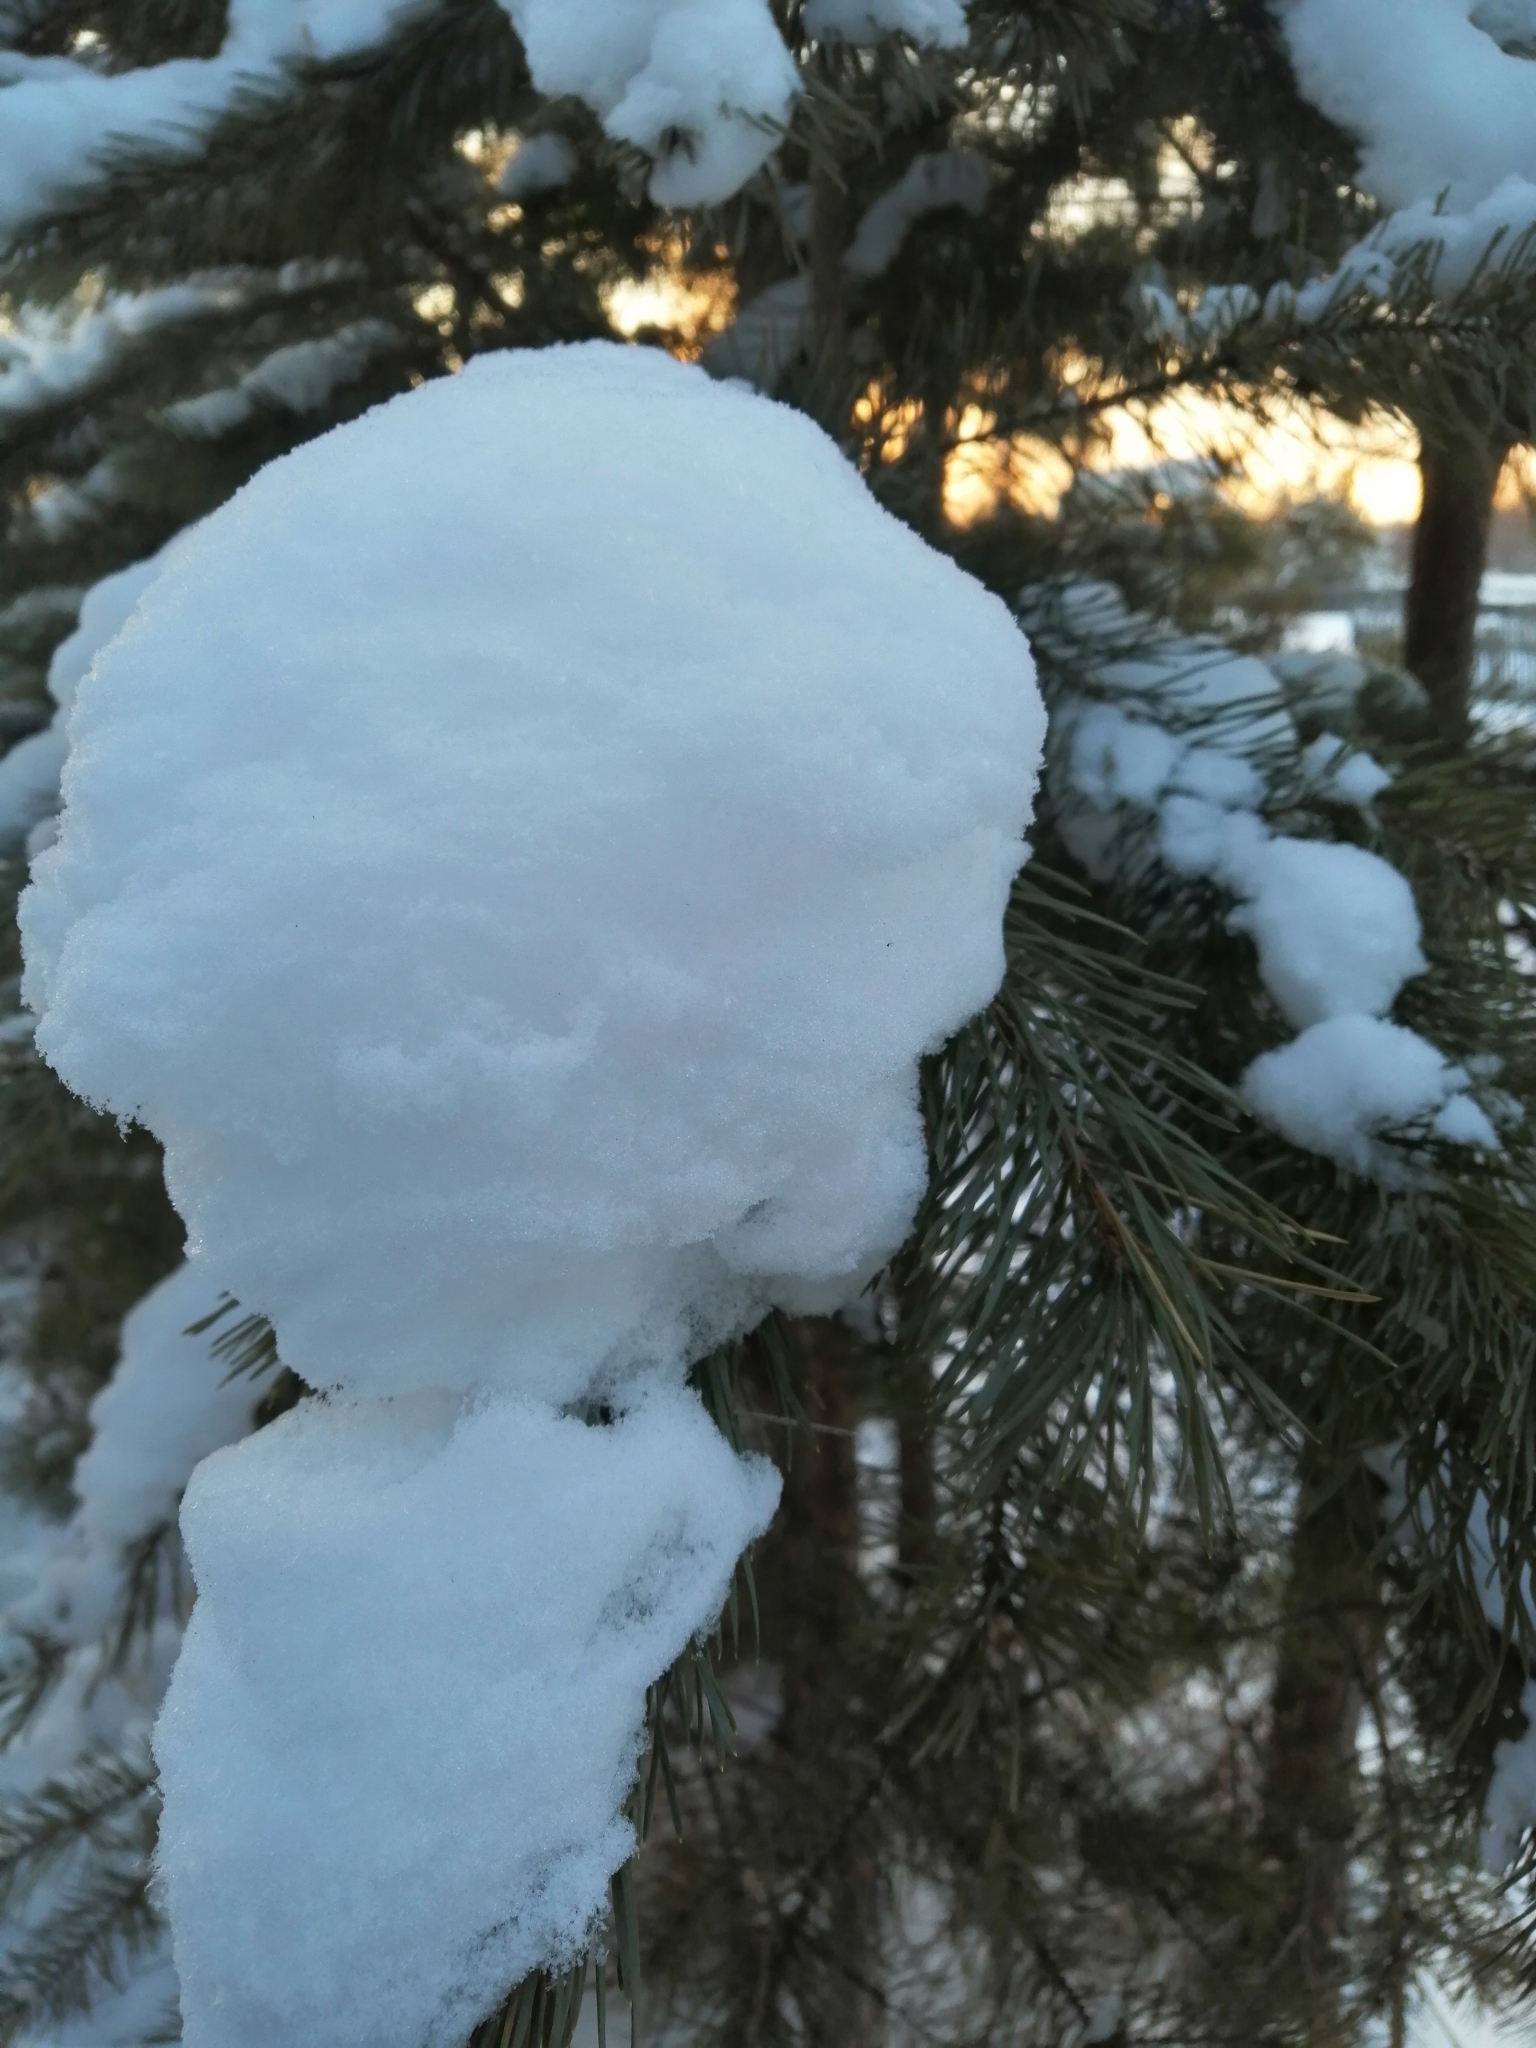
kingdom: Plantae
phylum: Tracheophyta
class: Pinopsida
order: Pinales
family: Pinaceae
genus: Pinus
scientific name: Pinus sylvestris
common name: Scots pine
